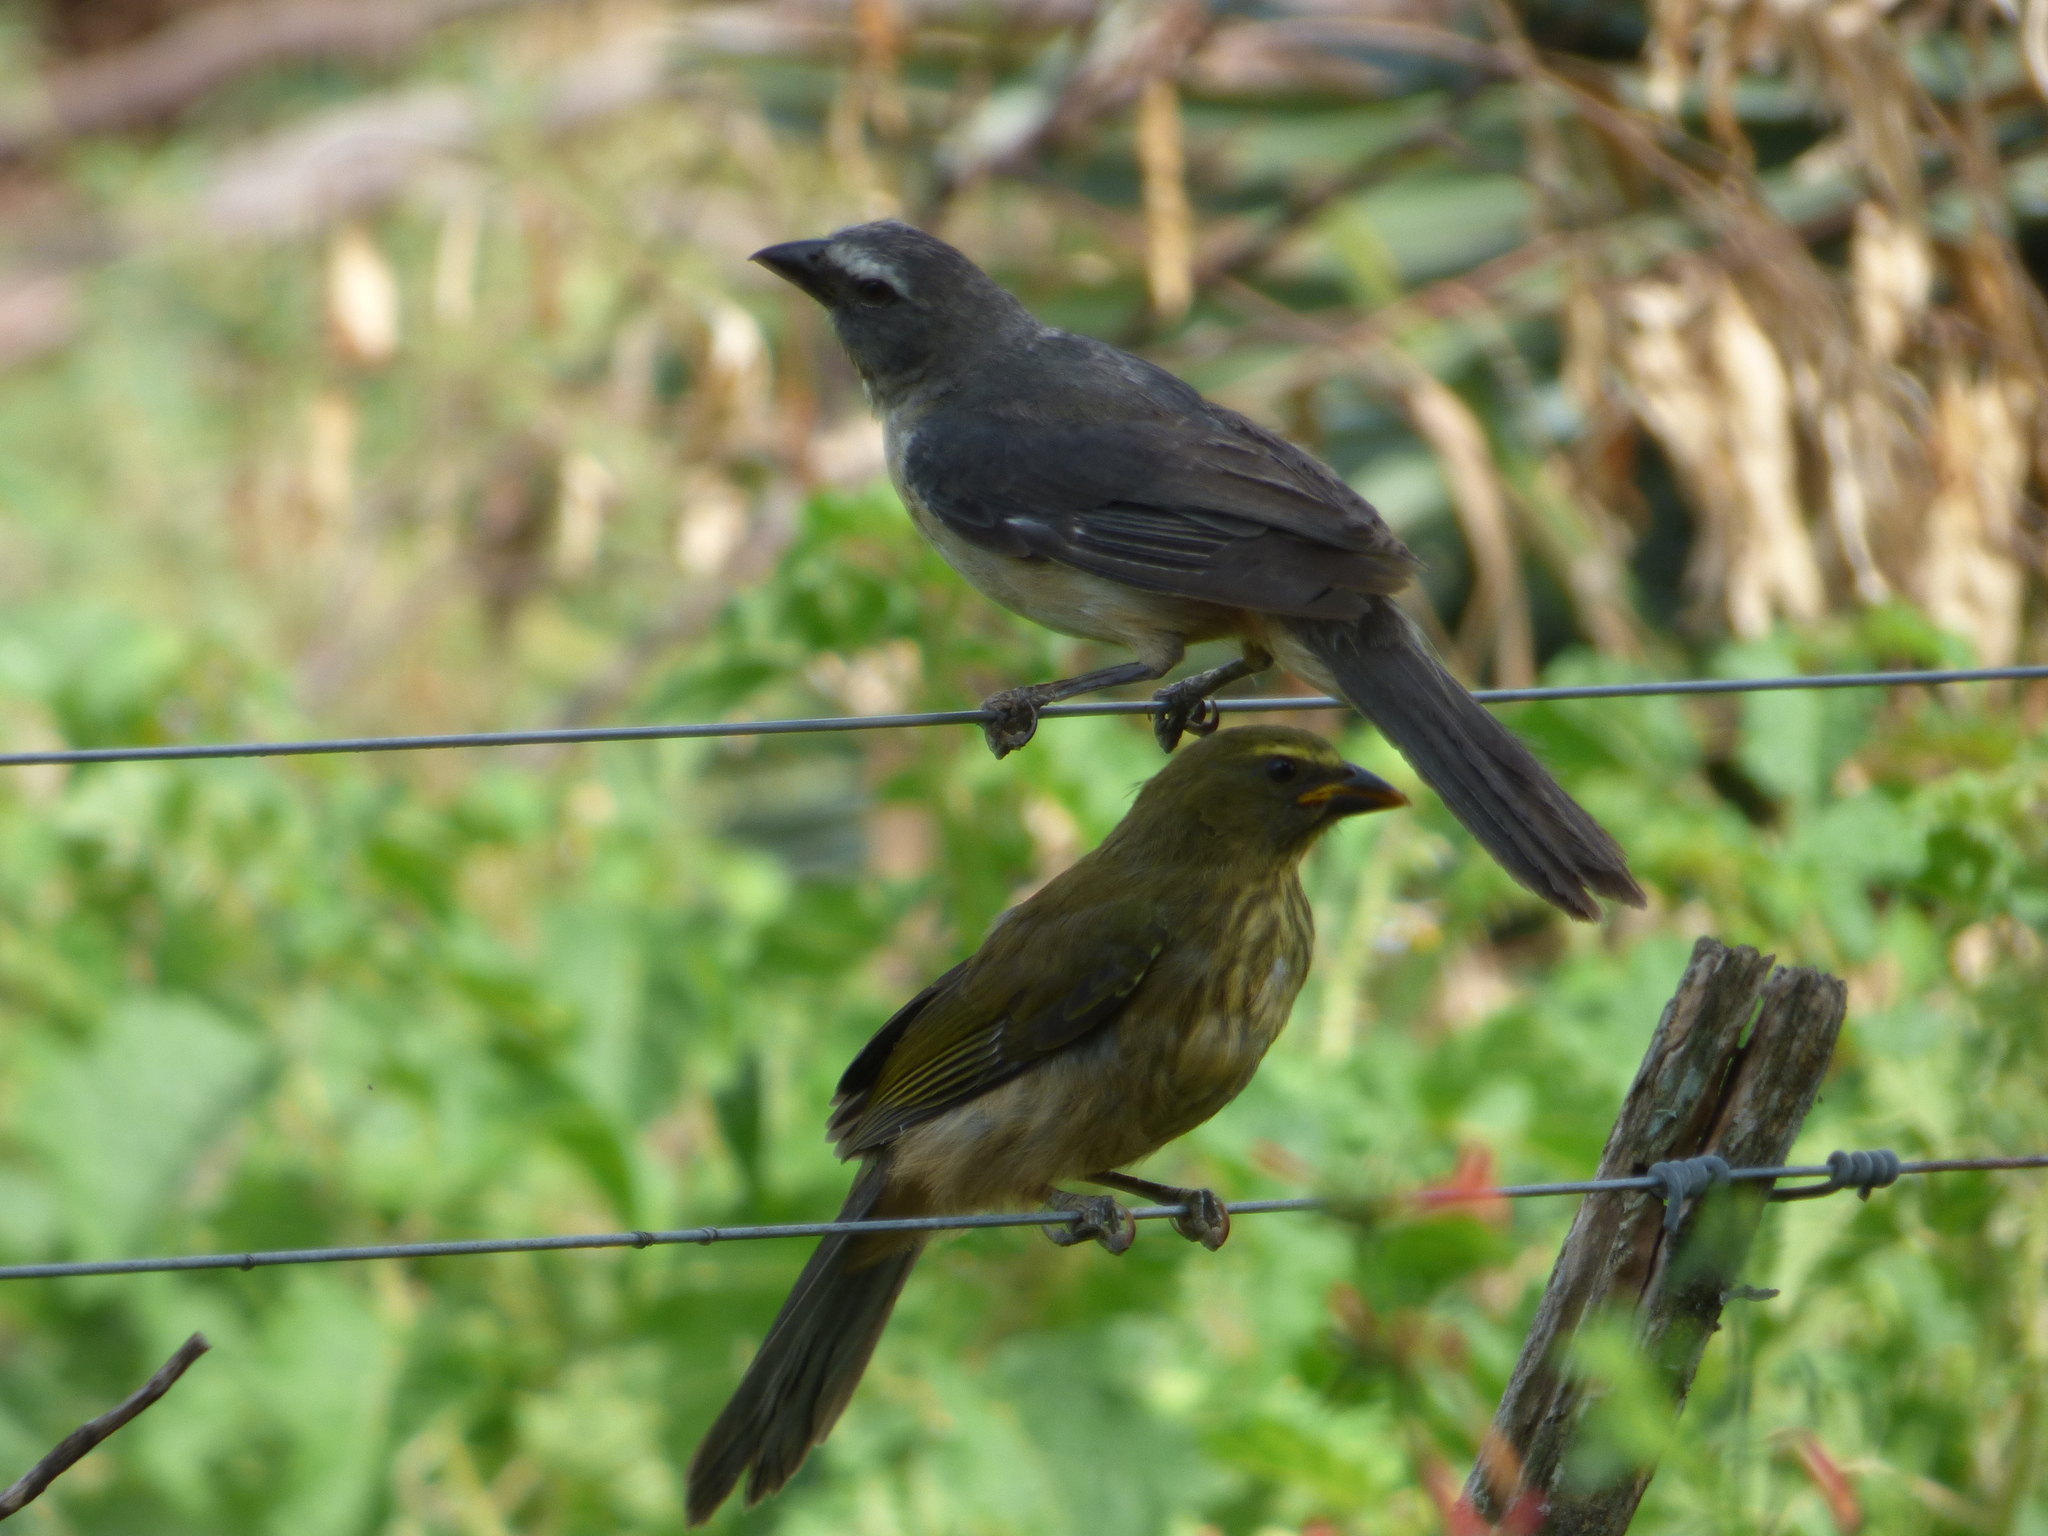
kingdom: Animalia
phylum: Chordata
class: Aves
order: Passeriformes
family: Thraupidae
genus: Saltator
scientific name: Saltator coerulescens
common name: Grayish saltator
